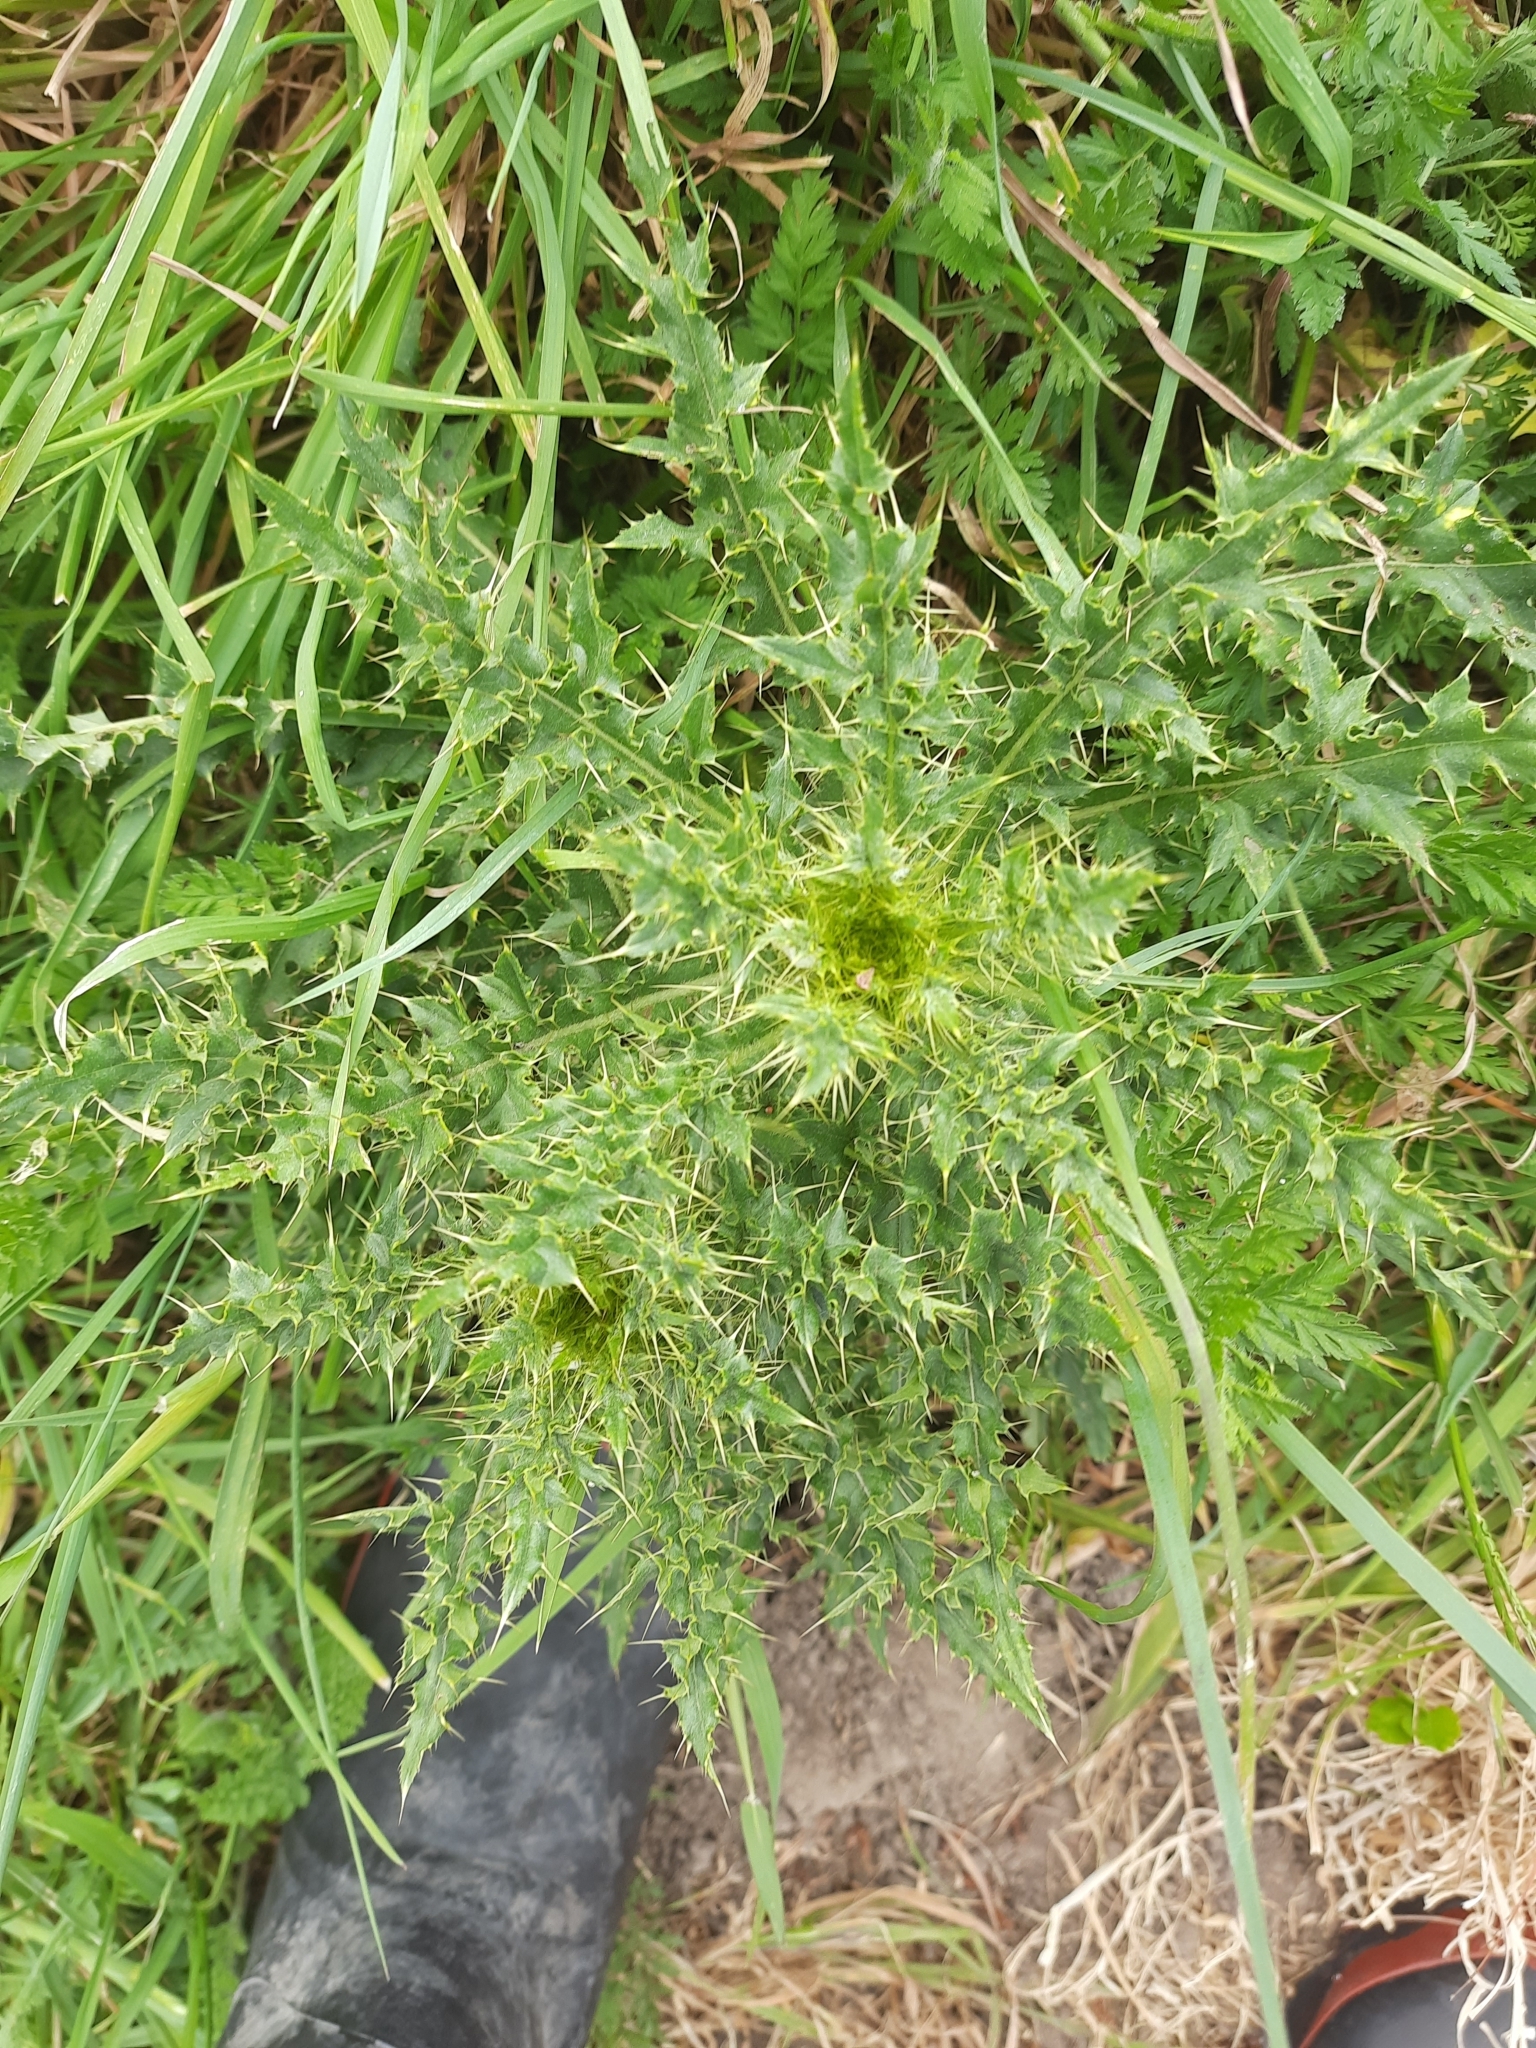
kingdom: Plantae
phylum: Tracheophyta
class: Magnoliopsida
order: Asterales
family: Asteraceae
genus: Cirsium
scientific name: Cirsium arvense
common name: Creeping thistle
